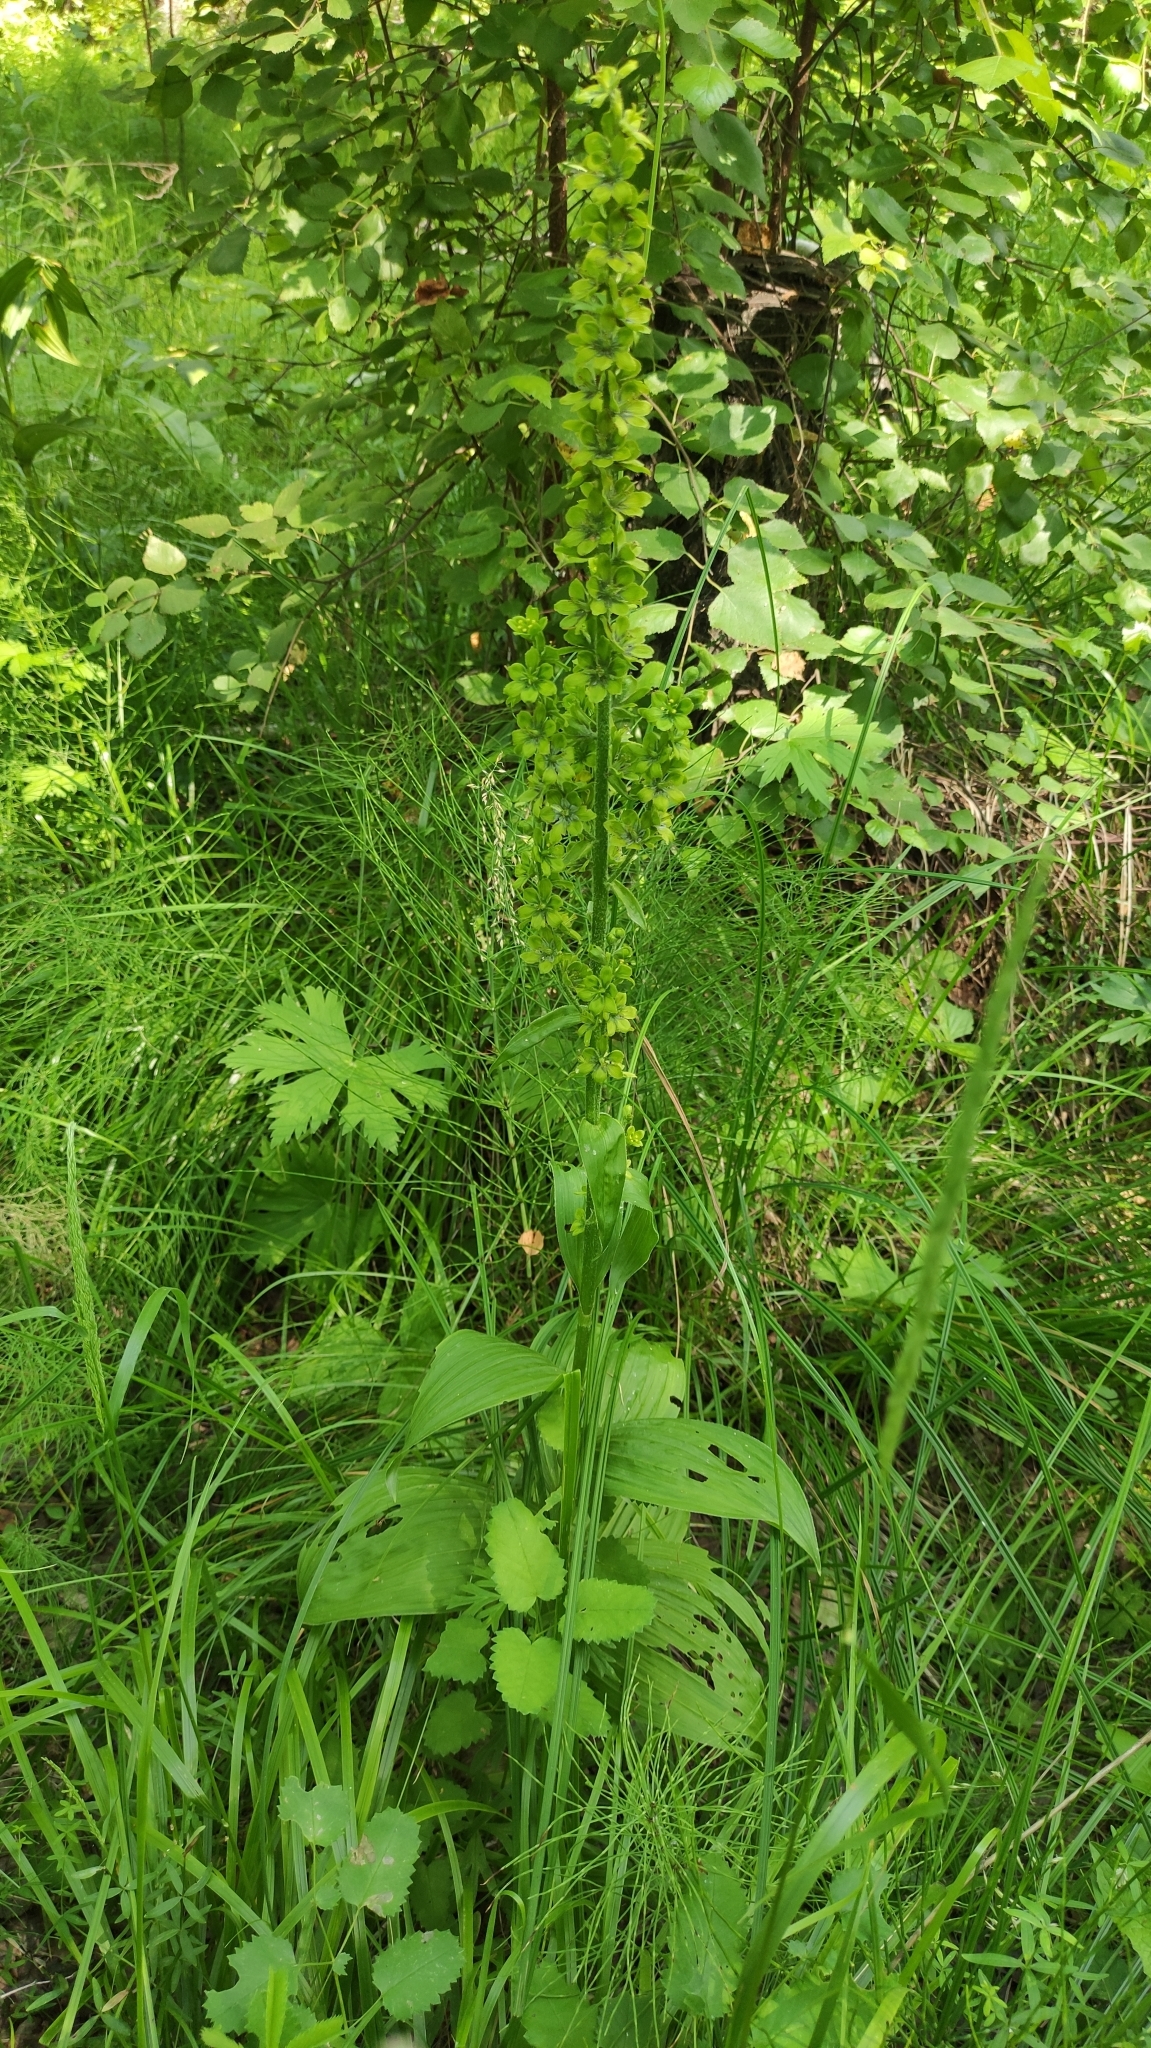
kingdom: Plantae
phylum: Tracheophyta
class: Liliopsida
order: Liliales
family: Melanthiaceae
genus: Veratrum
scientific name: Veratrum lobelianum
